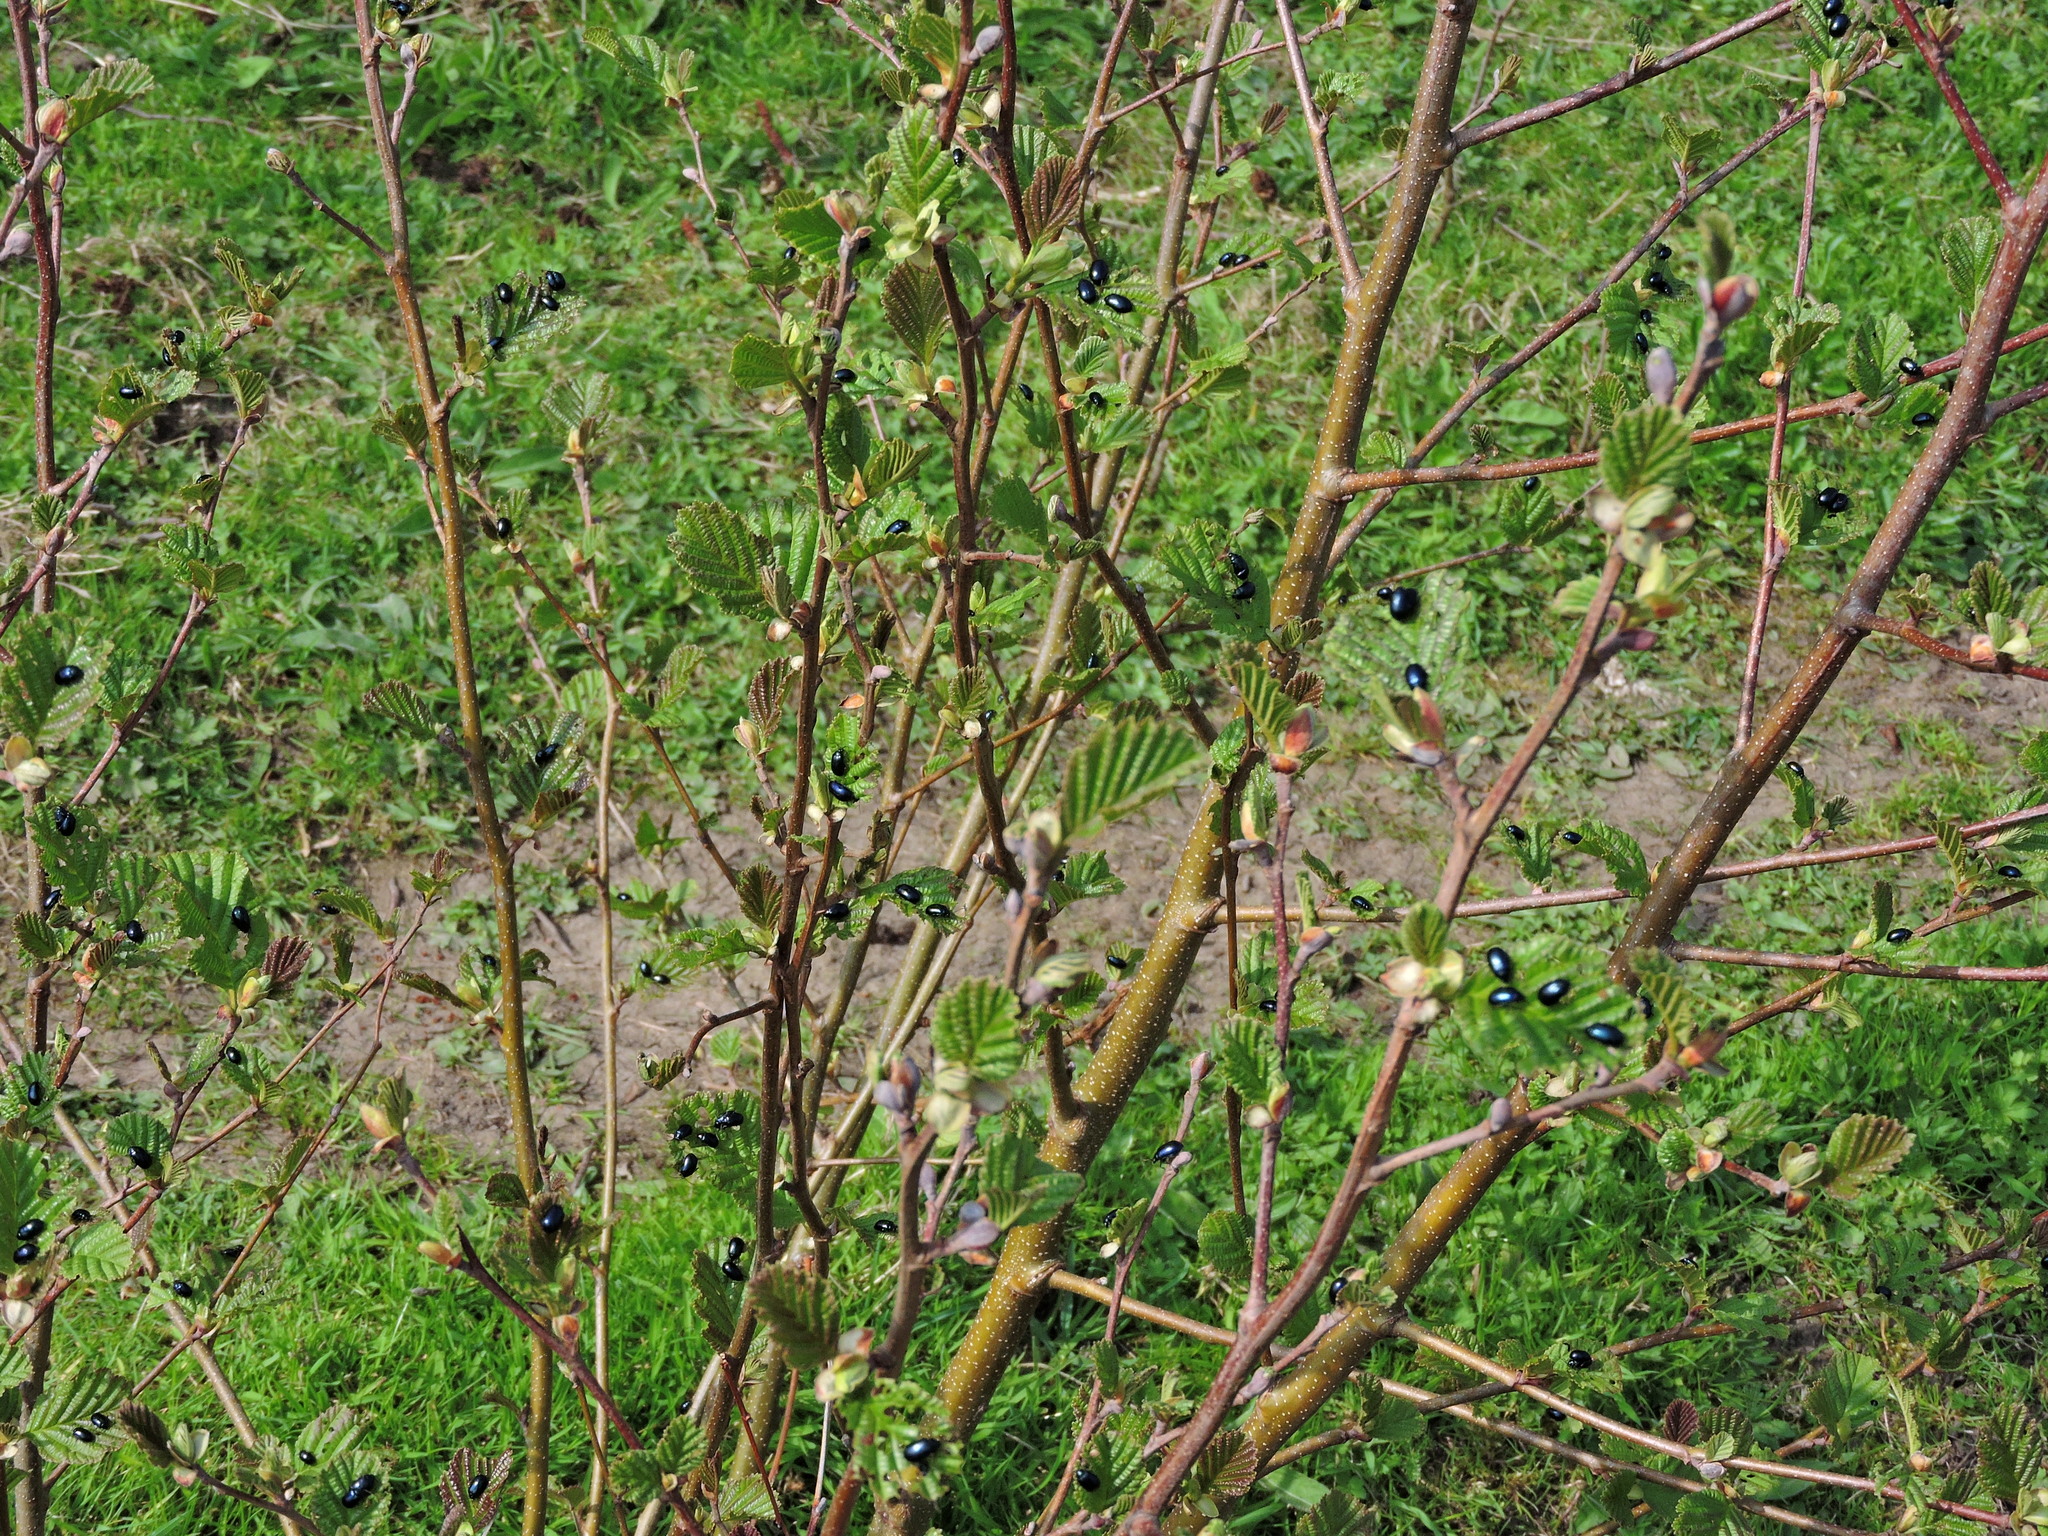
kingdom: Animalia
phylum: Arthropoda
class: Insecta
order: Coleoptera
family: Chrysomelidae
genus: Agelastica
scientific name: Agelastica alni
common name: Alder leaf beetle
